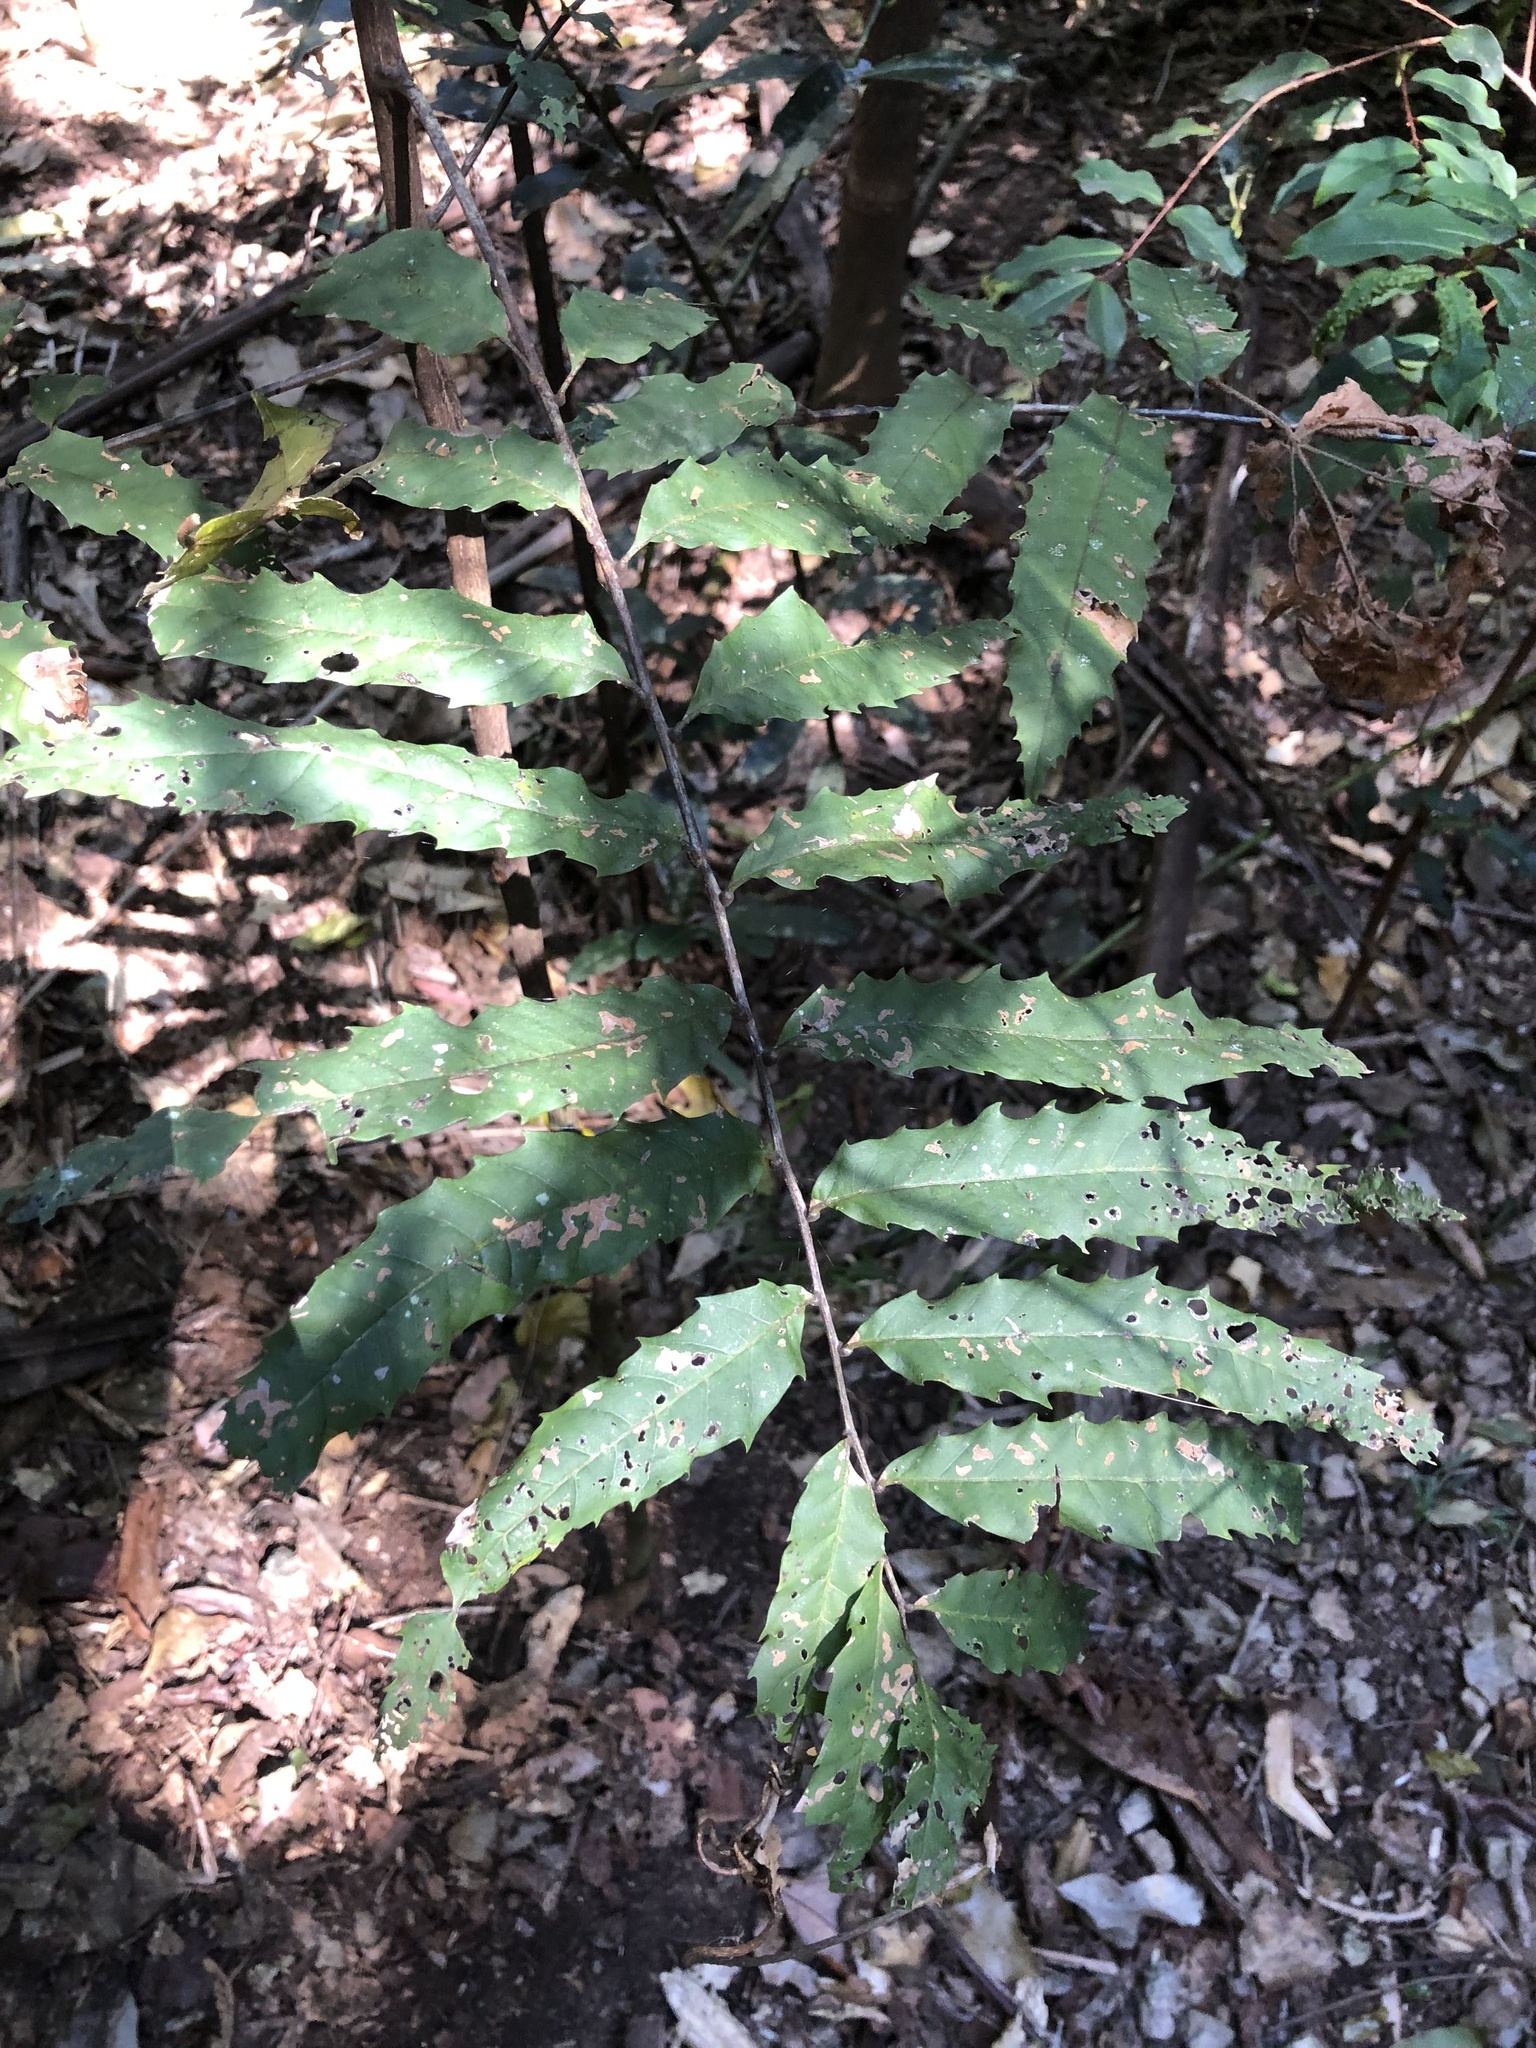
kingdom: Plantae
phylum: Tracheophyta
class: Magnoliopsida
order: Sapindales
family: Sapindaceae
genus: Cupaniopsis
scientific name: Cupaniopsis newmanii
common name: Long-leaved tuckeroo
